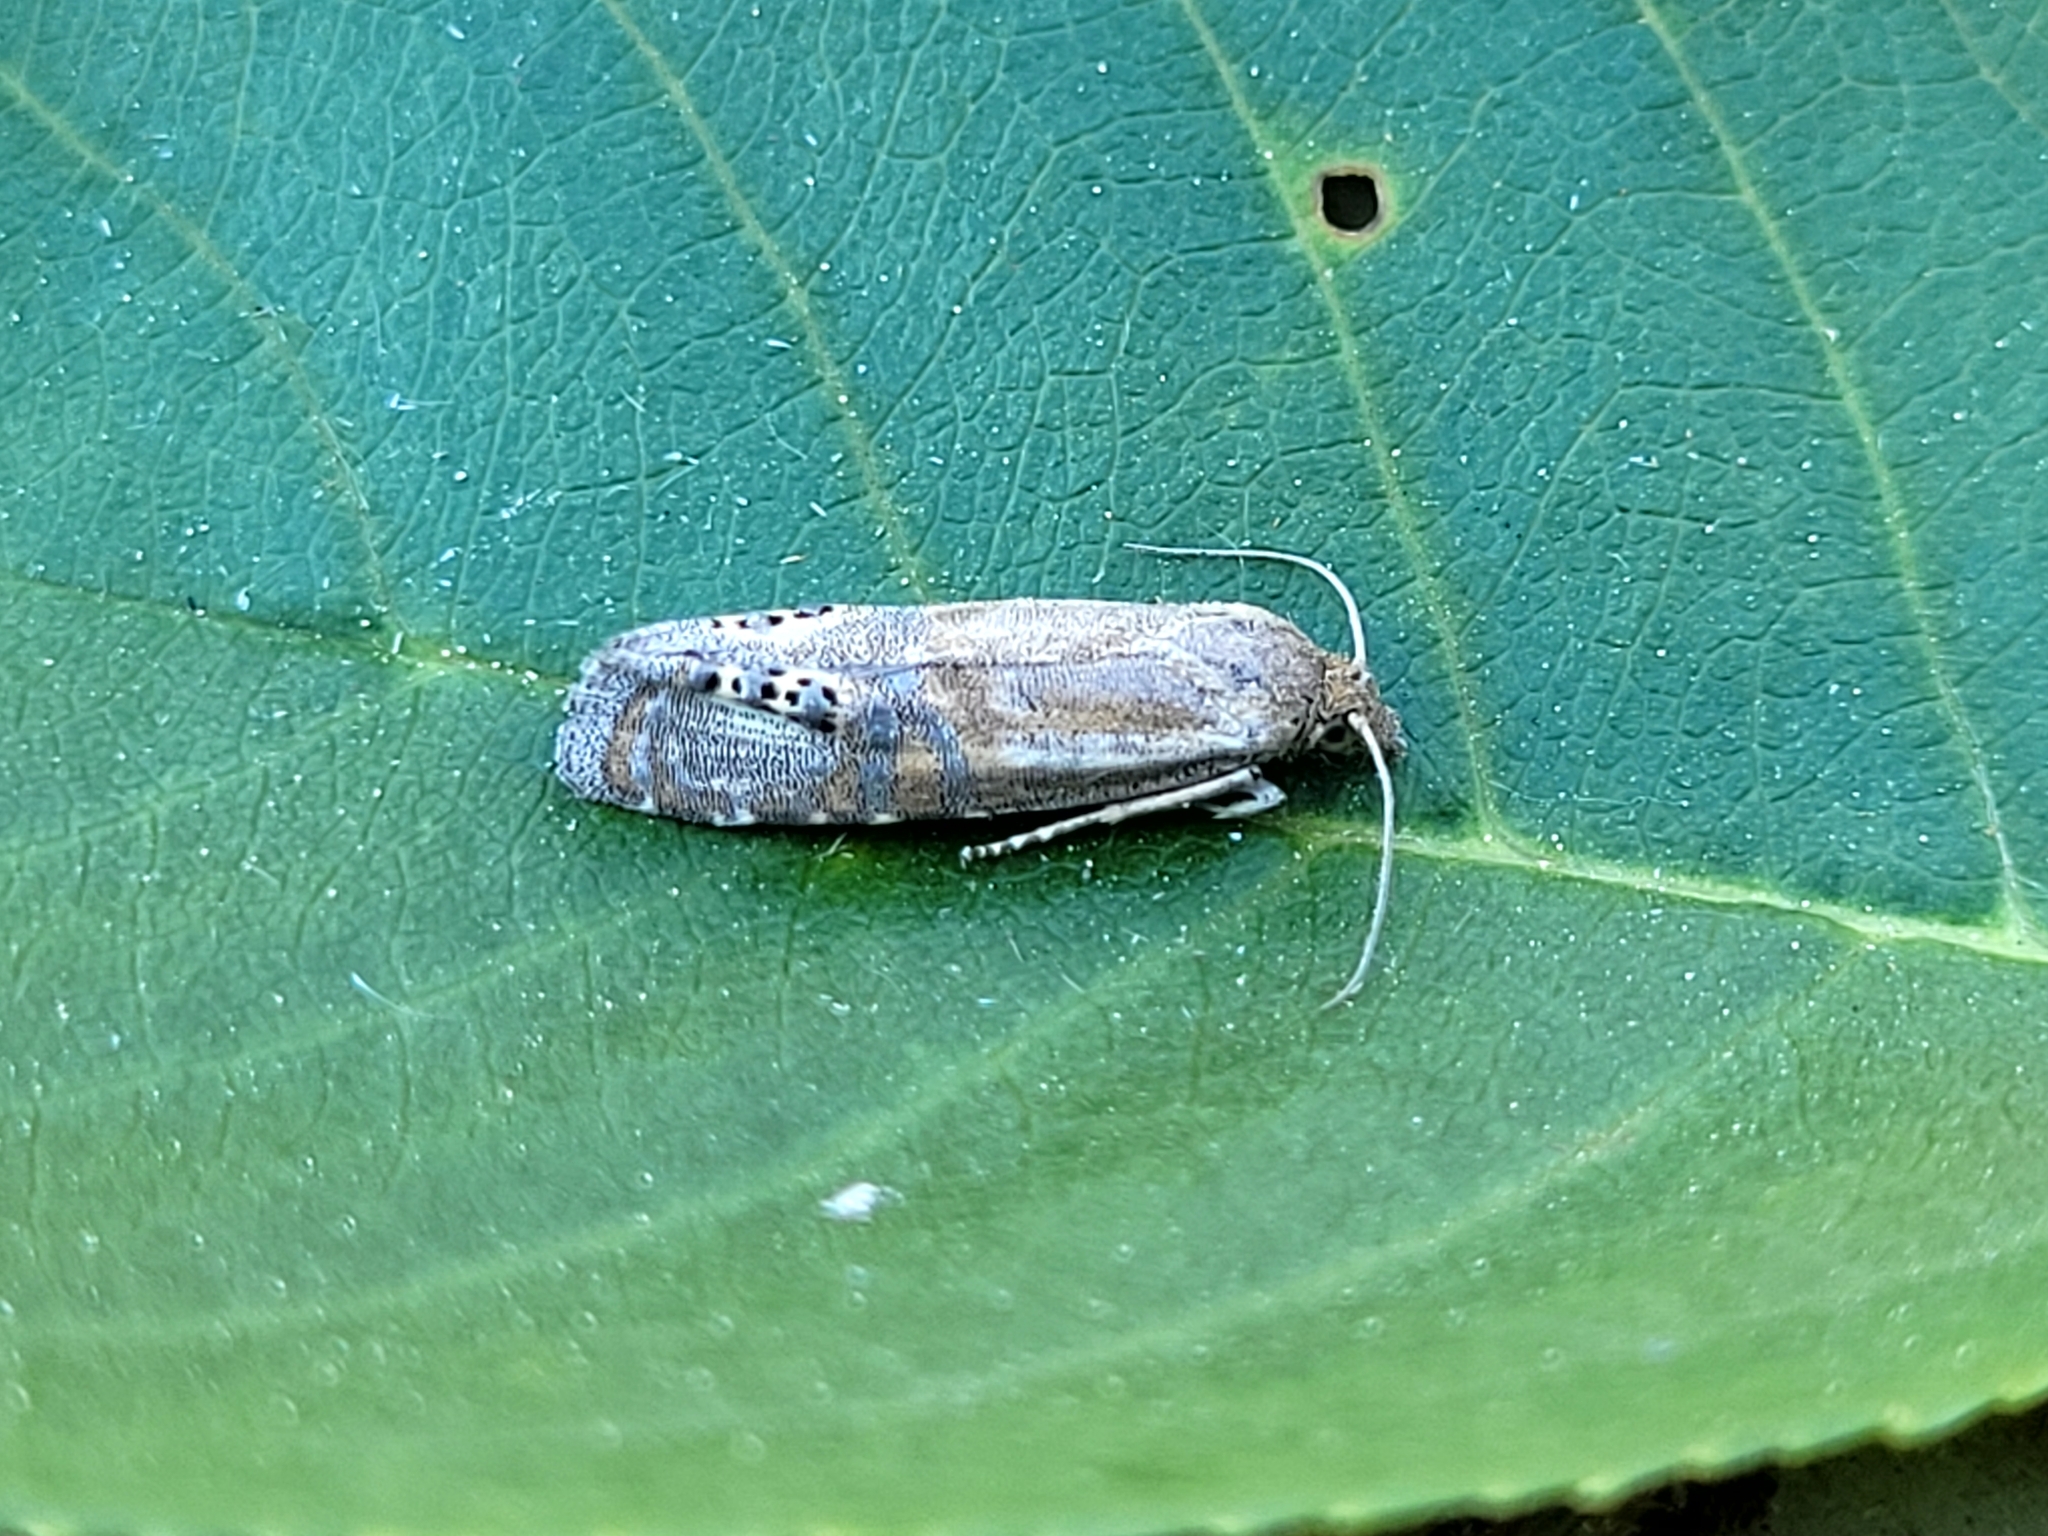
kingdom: Animalia
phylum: Arthropoda
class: Insecta
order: Lepidoptera
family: Tortricidae
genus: Pelochrista
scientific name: Pelochrista scintillana
